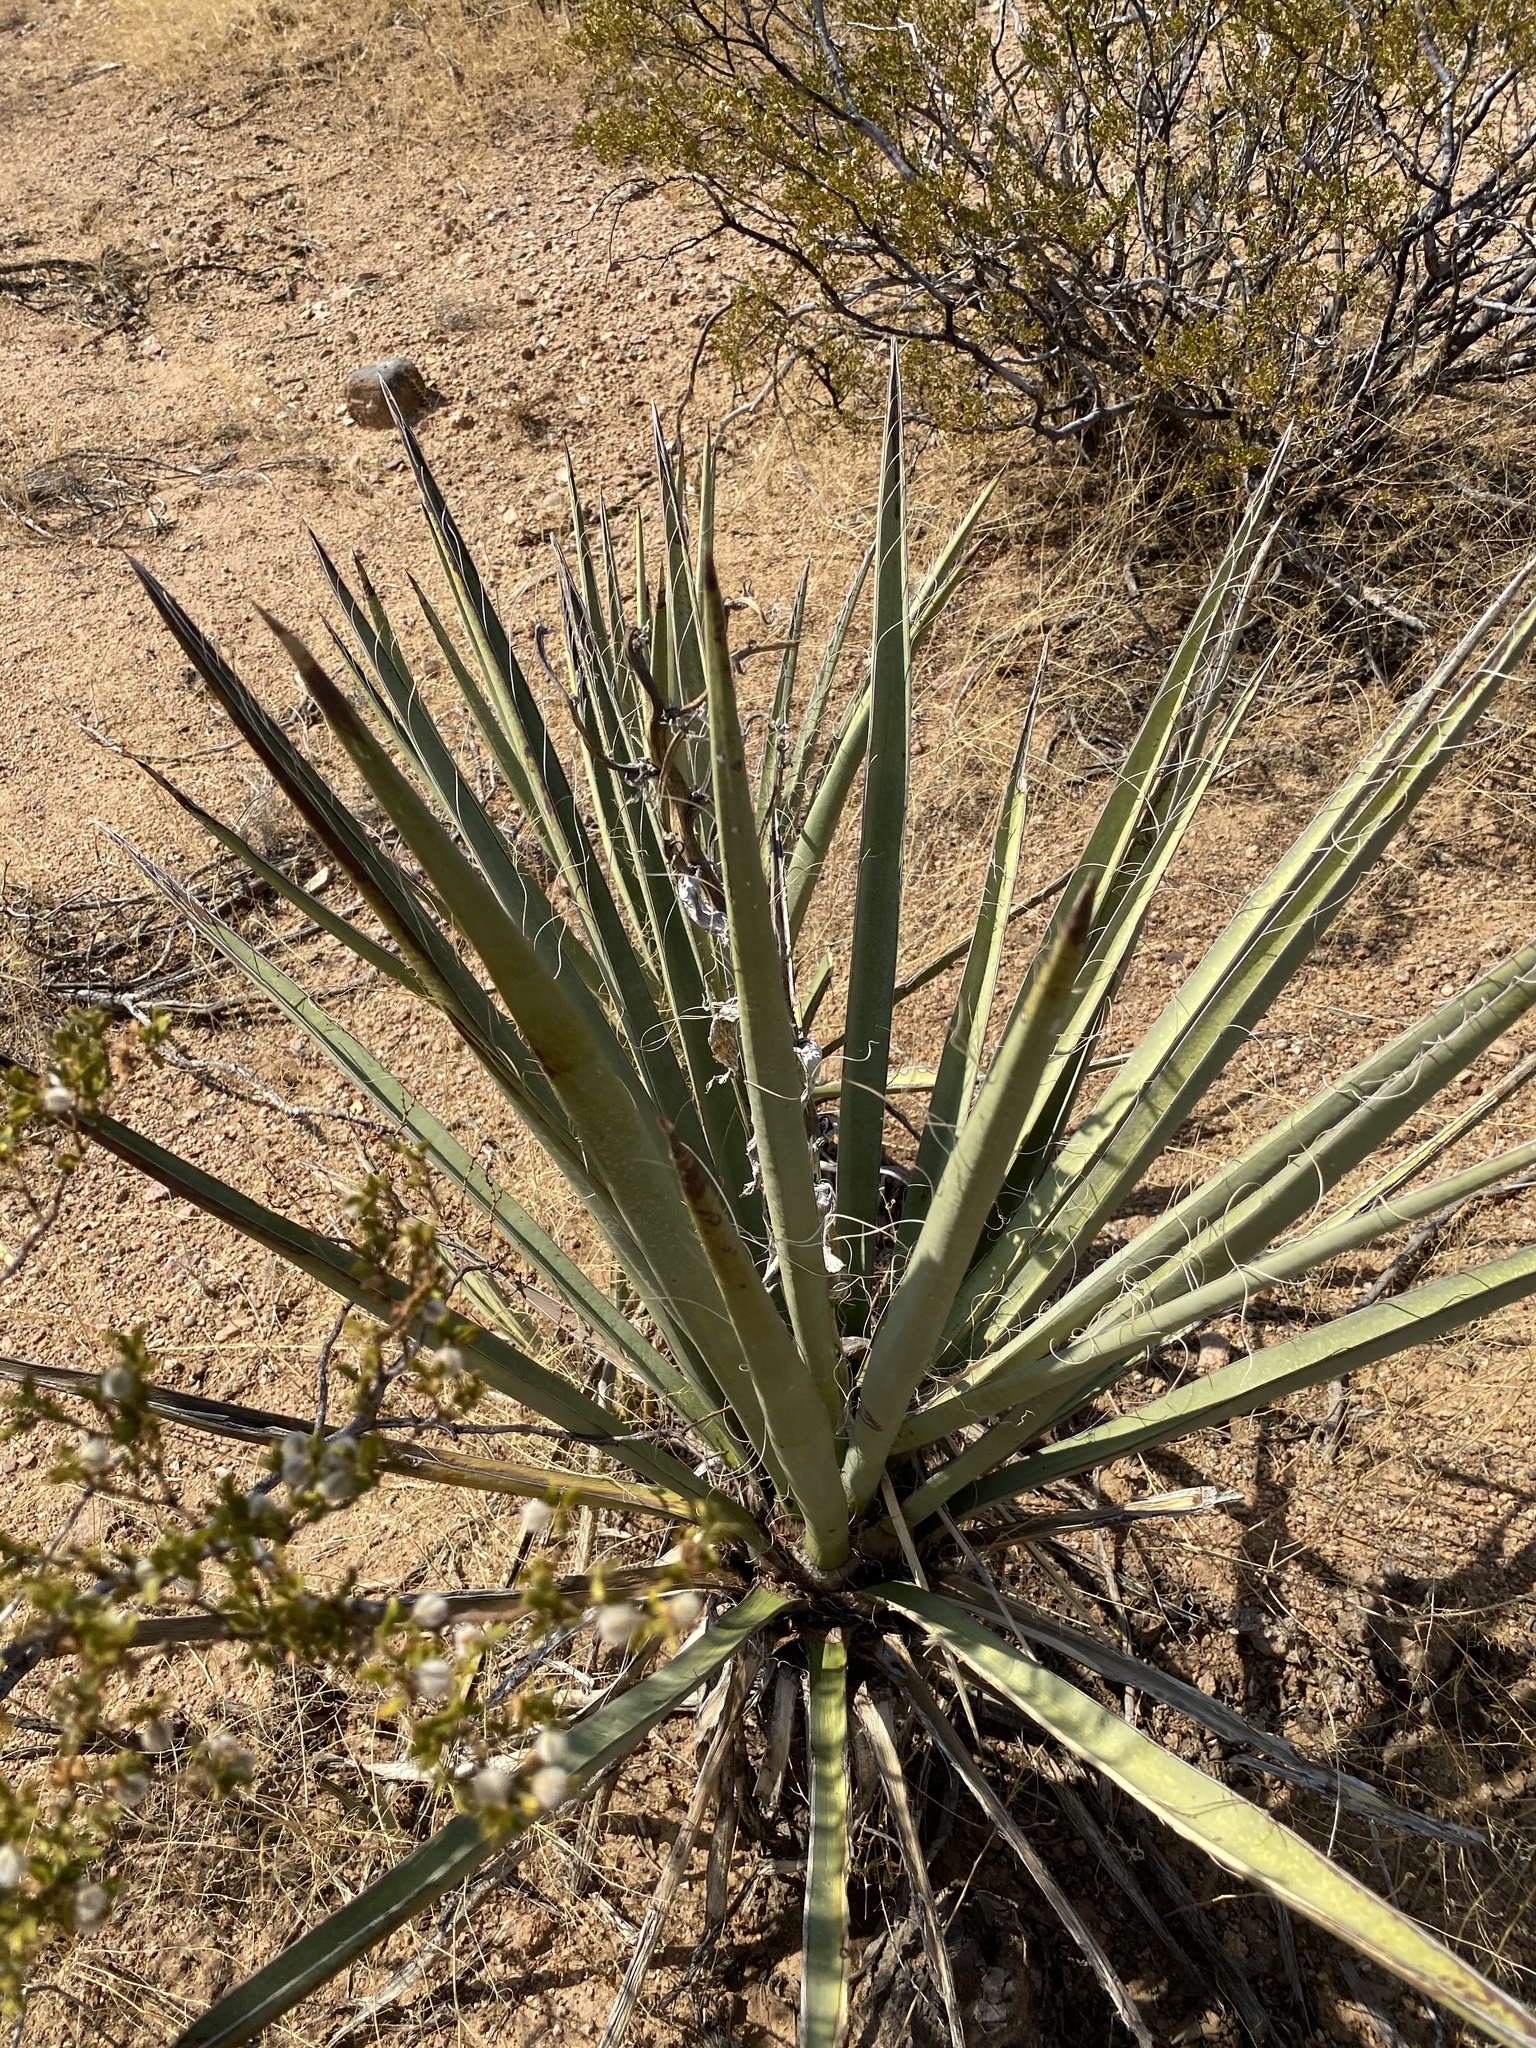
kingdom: Plantae
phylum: Tracheophyta
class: Liliopsida
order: Asparagales
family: Asparagaceae
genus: Yucca
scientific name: Yucca baccata
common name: Banana yucca
